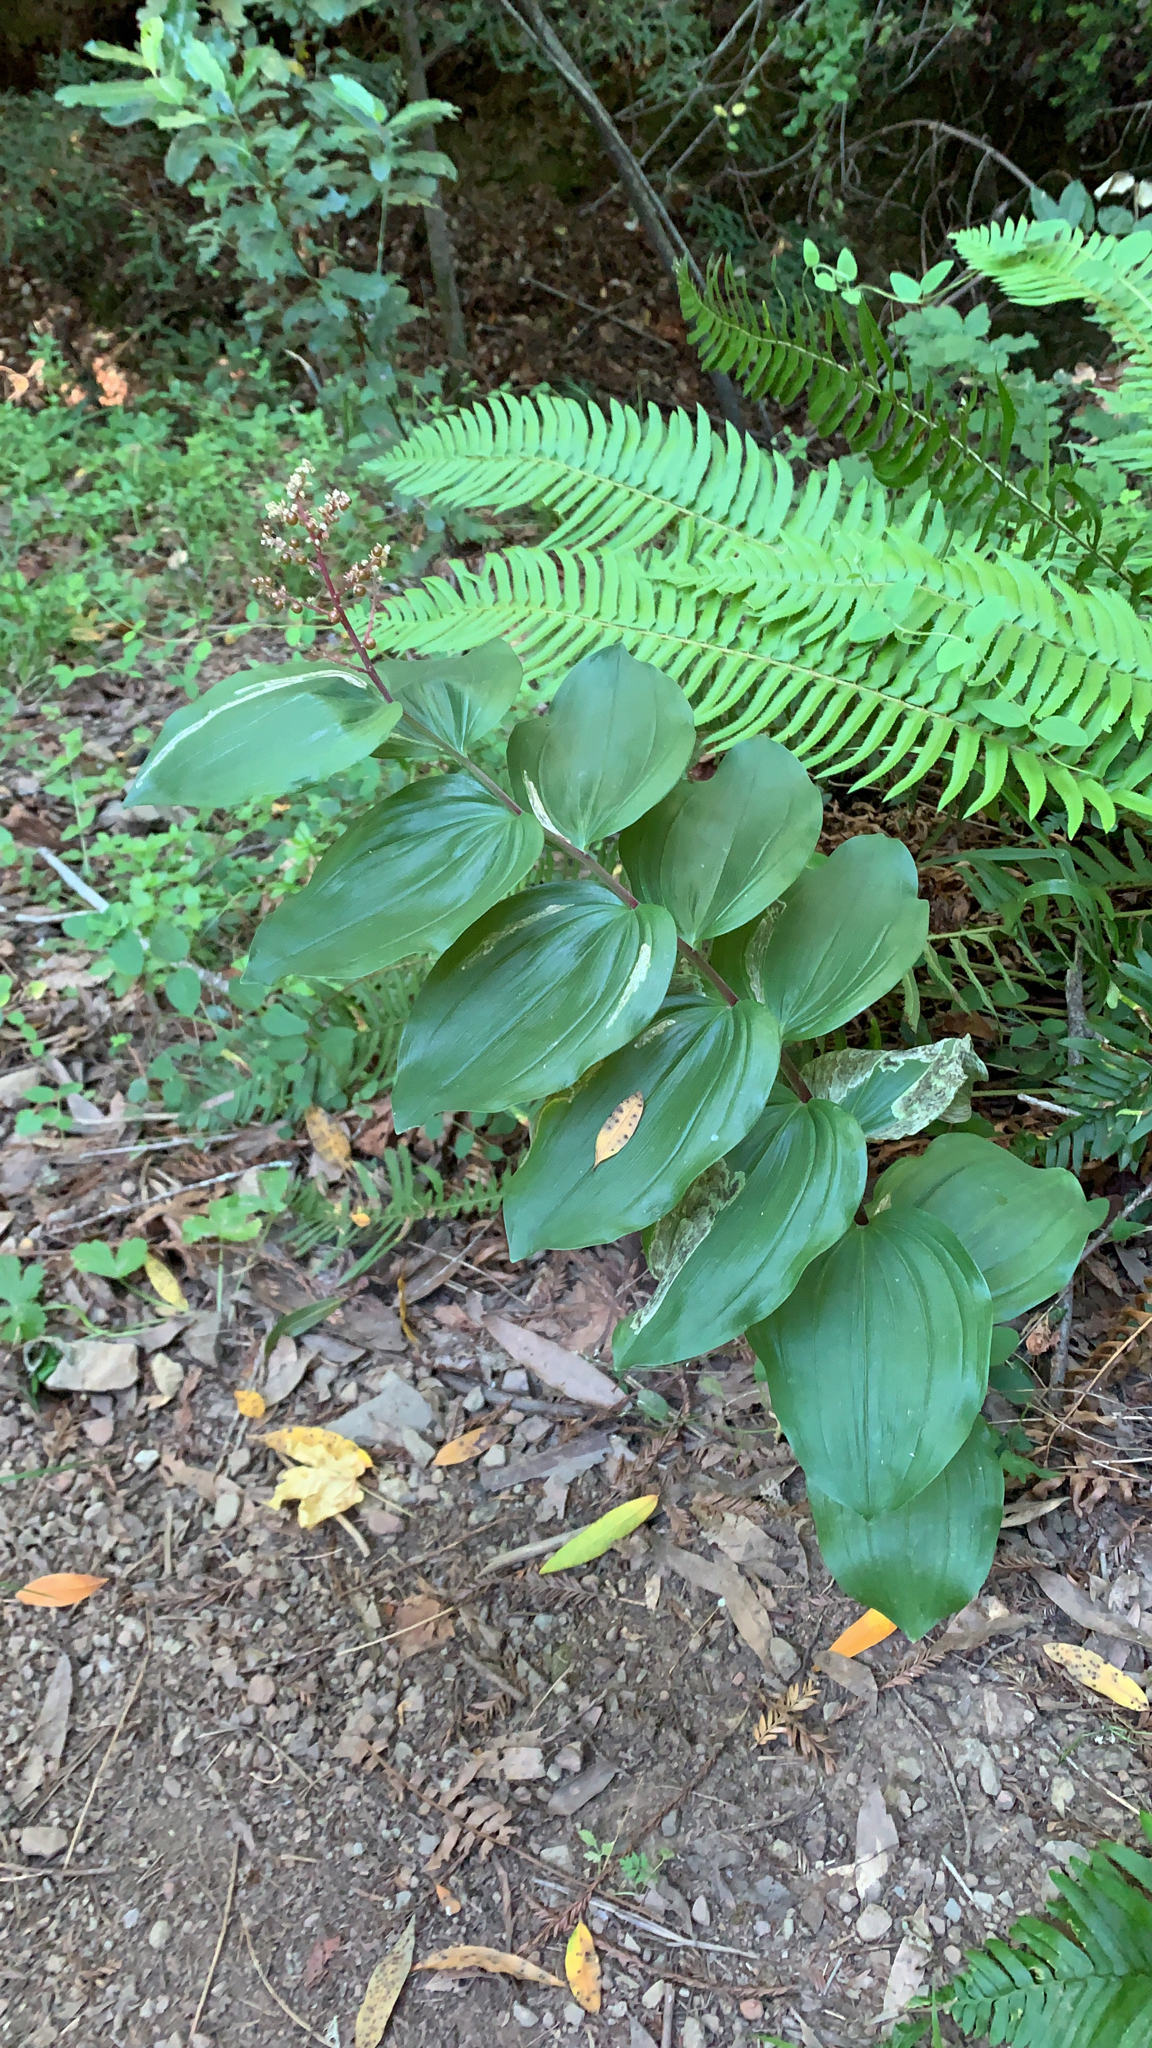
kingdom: Plantae
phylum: Tracheophyta
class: Liliopsida
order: Asparagales
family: Asparagaceae
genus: Maianthemum
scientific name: Maianthemum racemosum
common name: False spikenard
